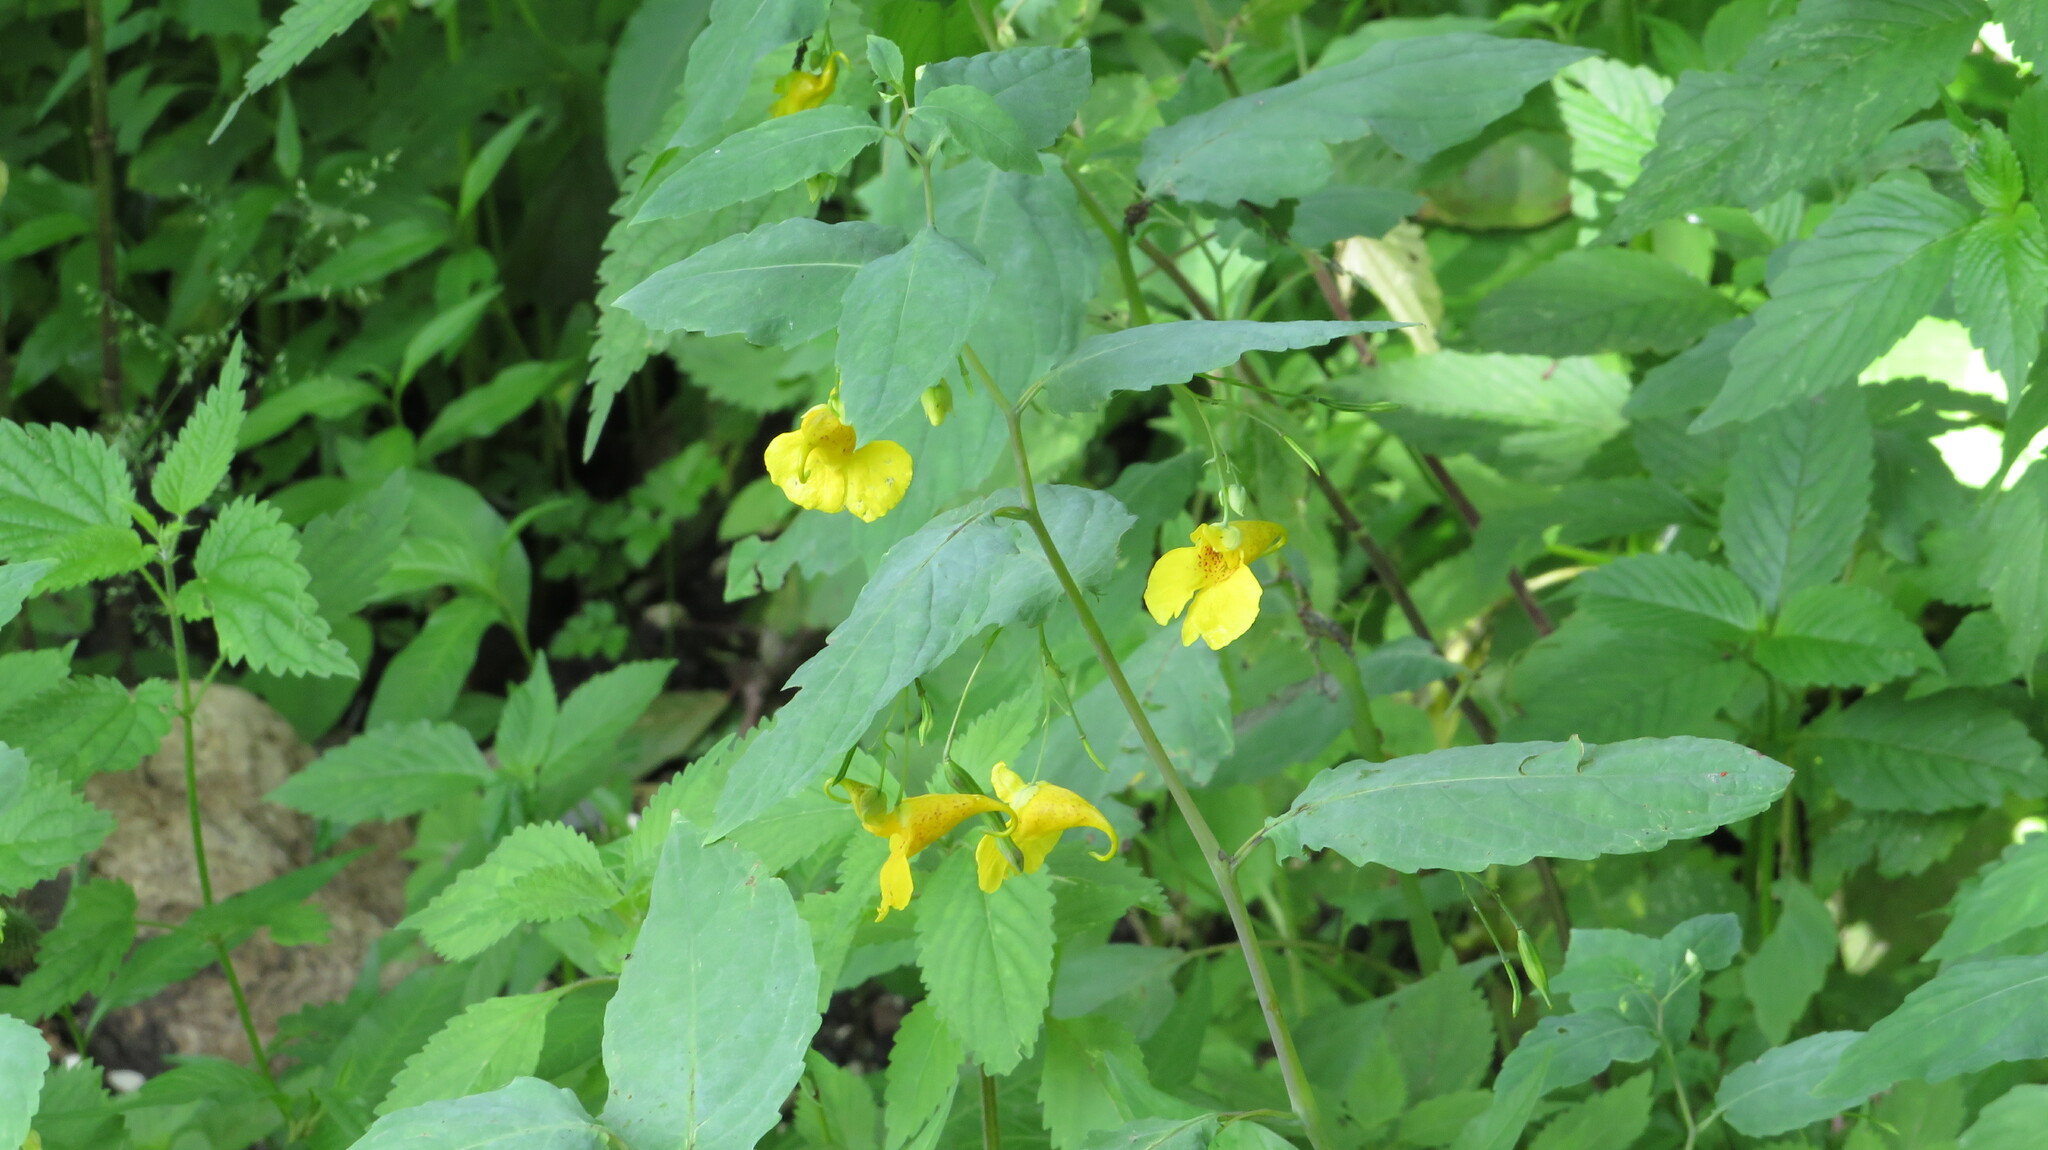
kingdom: Plantae
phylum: Tracheophyta
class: Magnoliopsida
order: Ericales
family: Balsaminaceae
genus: Impatiens
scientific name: Impatiens noli-tangere
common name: Touch-me-not balsam
